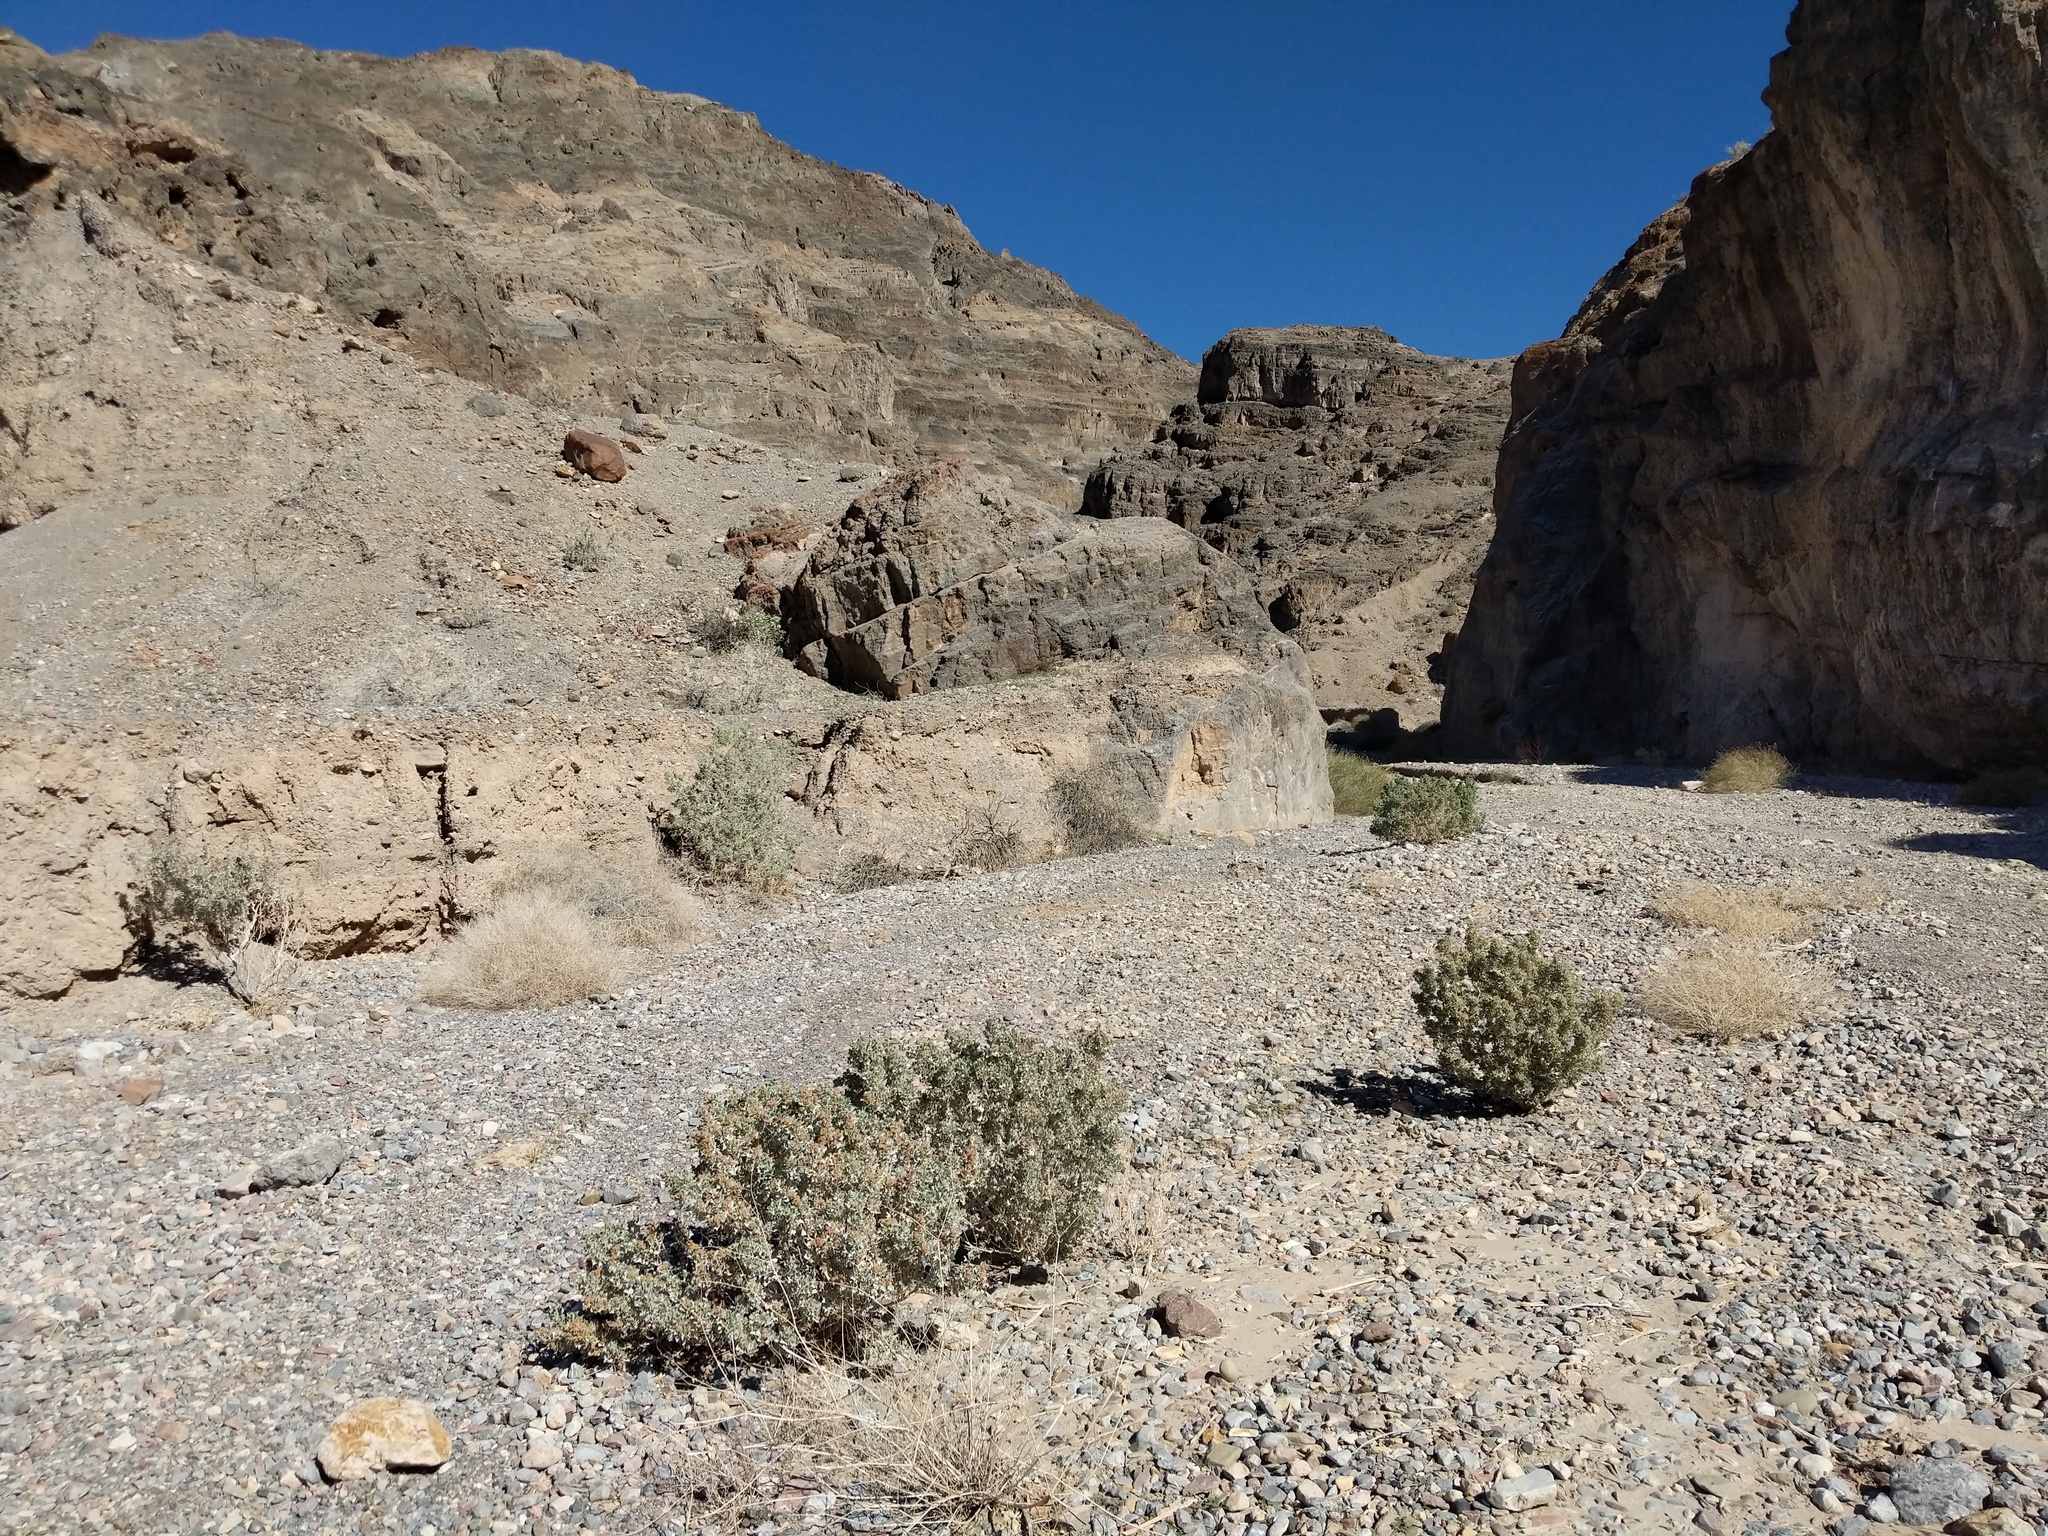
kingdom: Plantae
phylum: Tracheophyta
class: Magnoliopsida
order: Caryophyllales
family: Amaranthaceae
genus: Atriplex
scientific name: Atriplex hymenelytra
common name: Desert-holly
